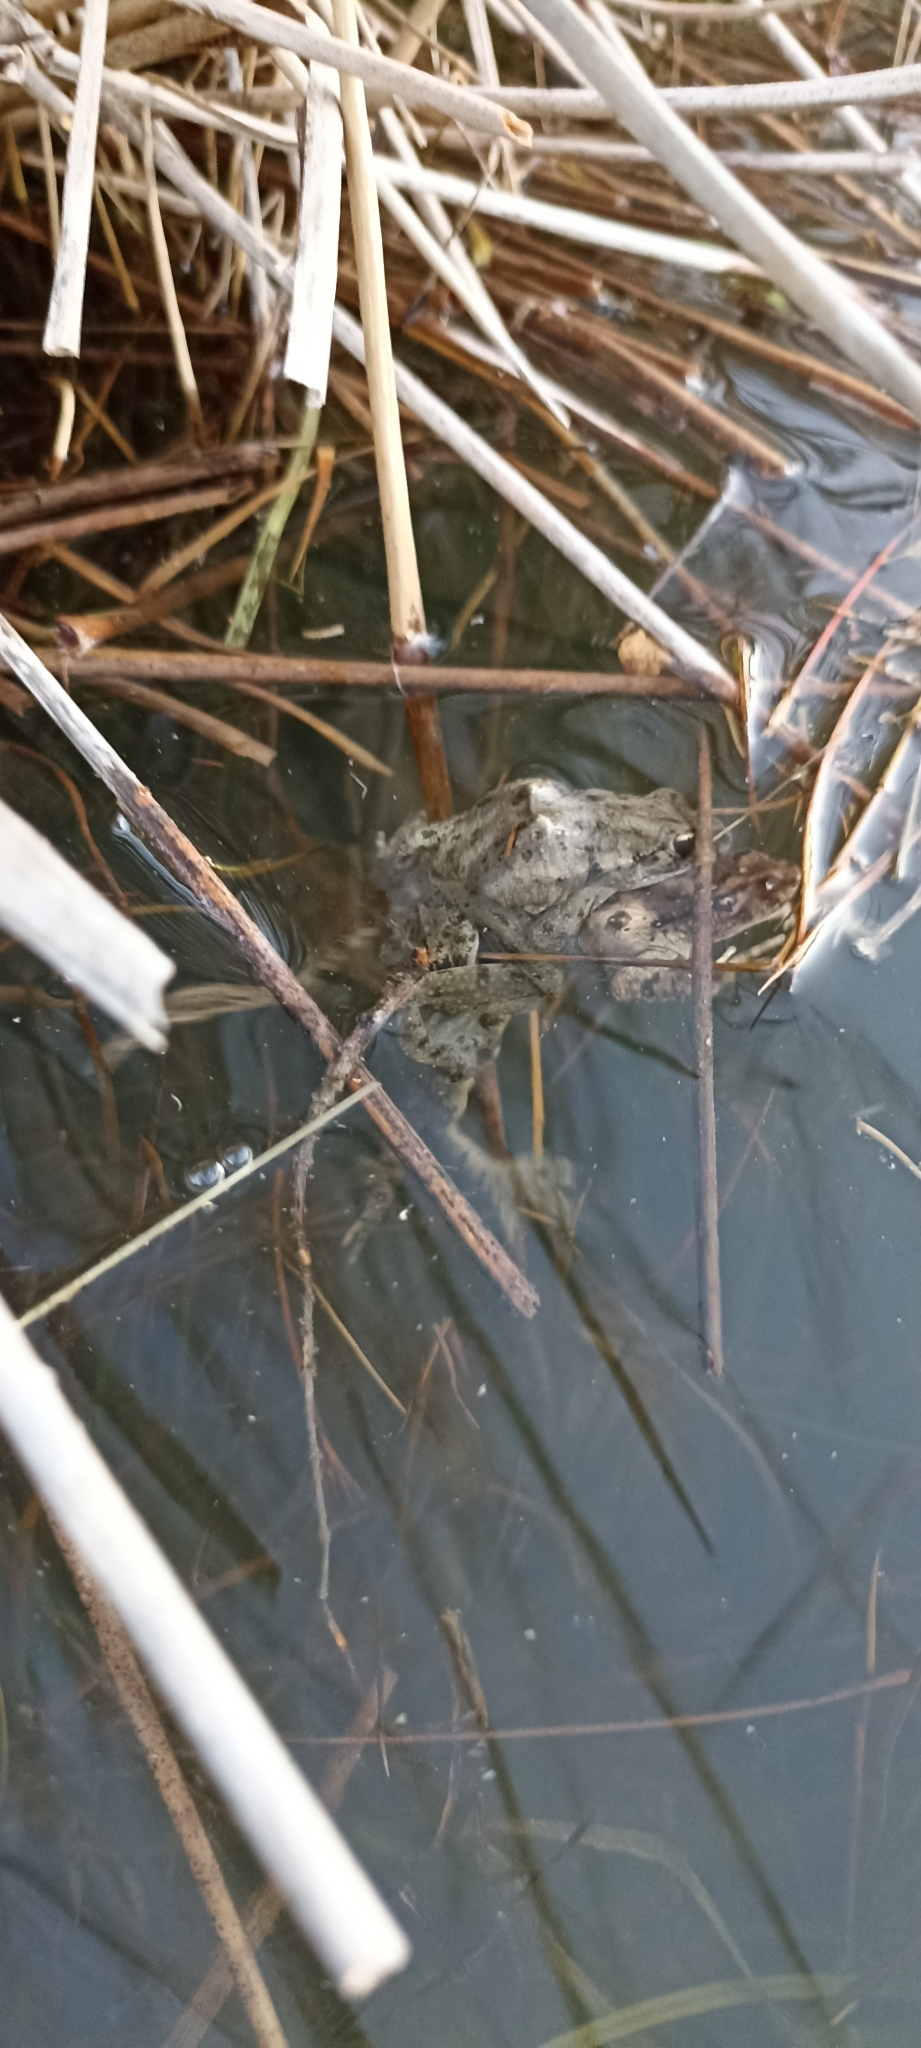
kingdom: Animalia
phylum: Chordata
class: Amphibia
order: Anura
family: Pelodytidae
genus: Pelodytes
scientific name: Pelodytes punctatus
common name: Parsley frog
